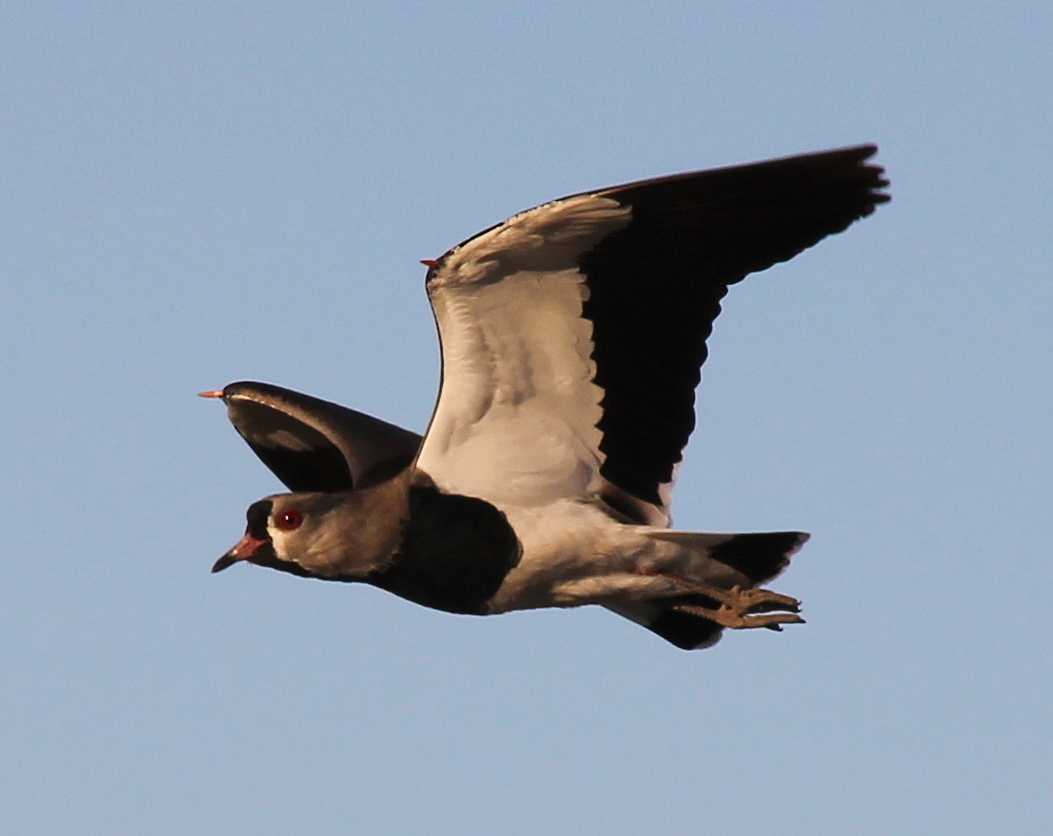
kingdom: Animalia
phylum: Chordata
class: Aves
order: Charadriiformes
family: Charadriidae
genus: Vanellus
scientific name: Vanellus chilensis
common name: Southern lapwing
